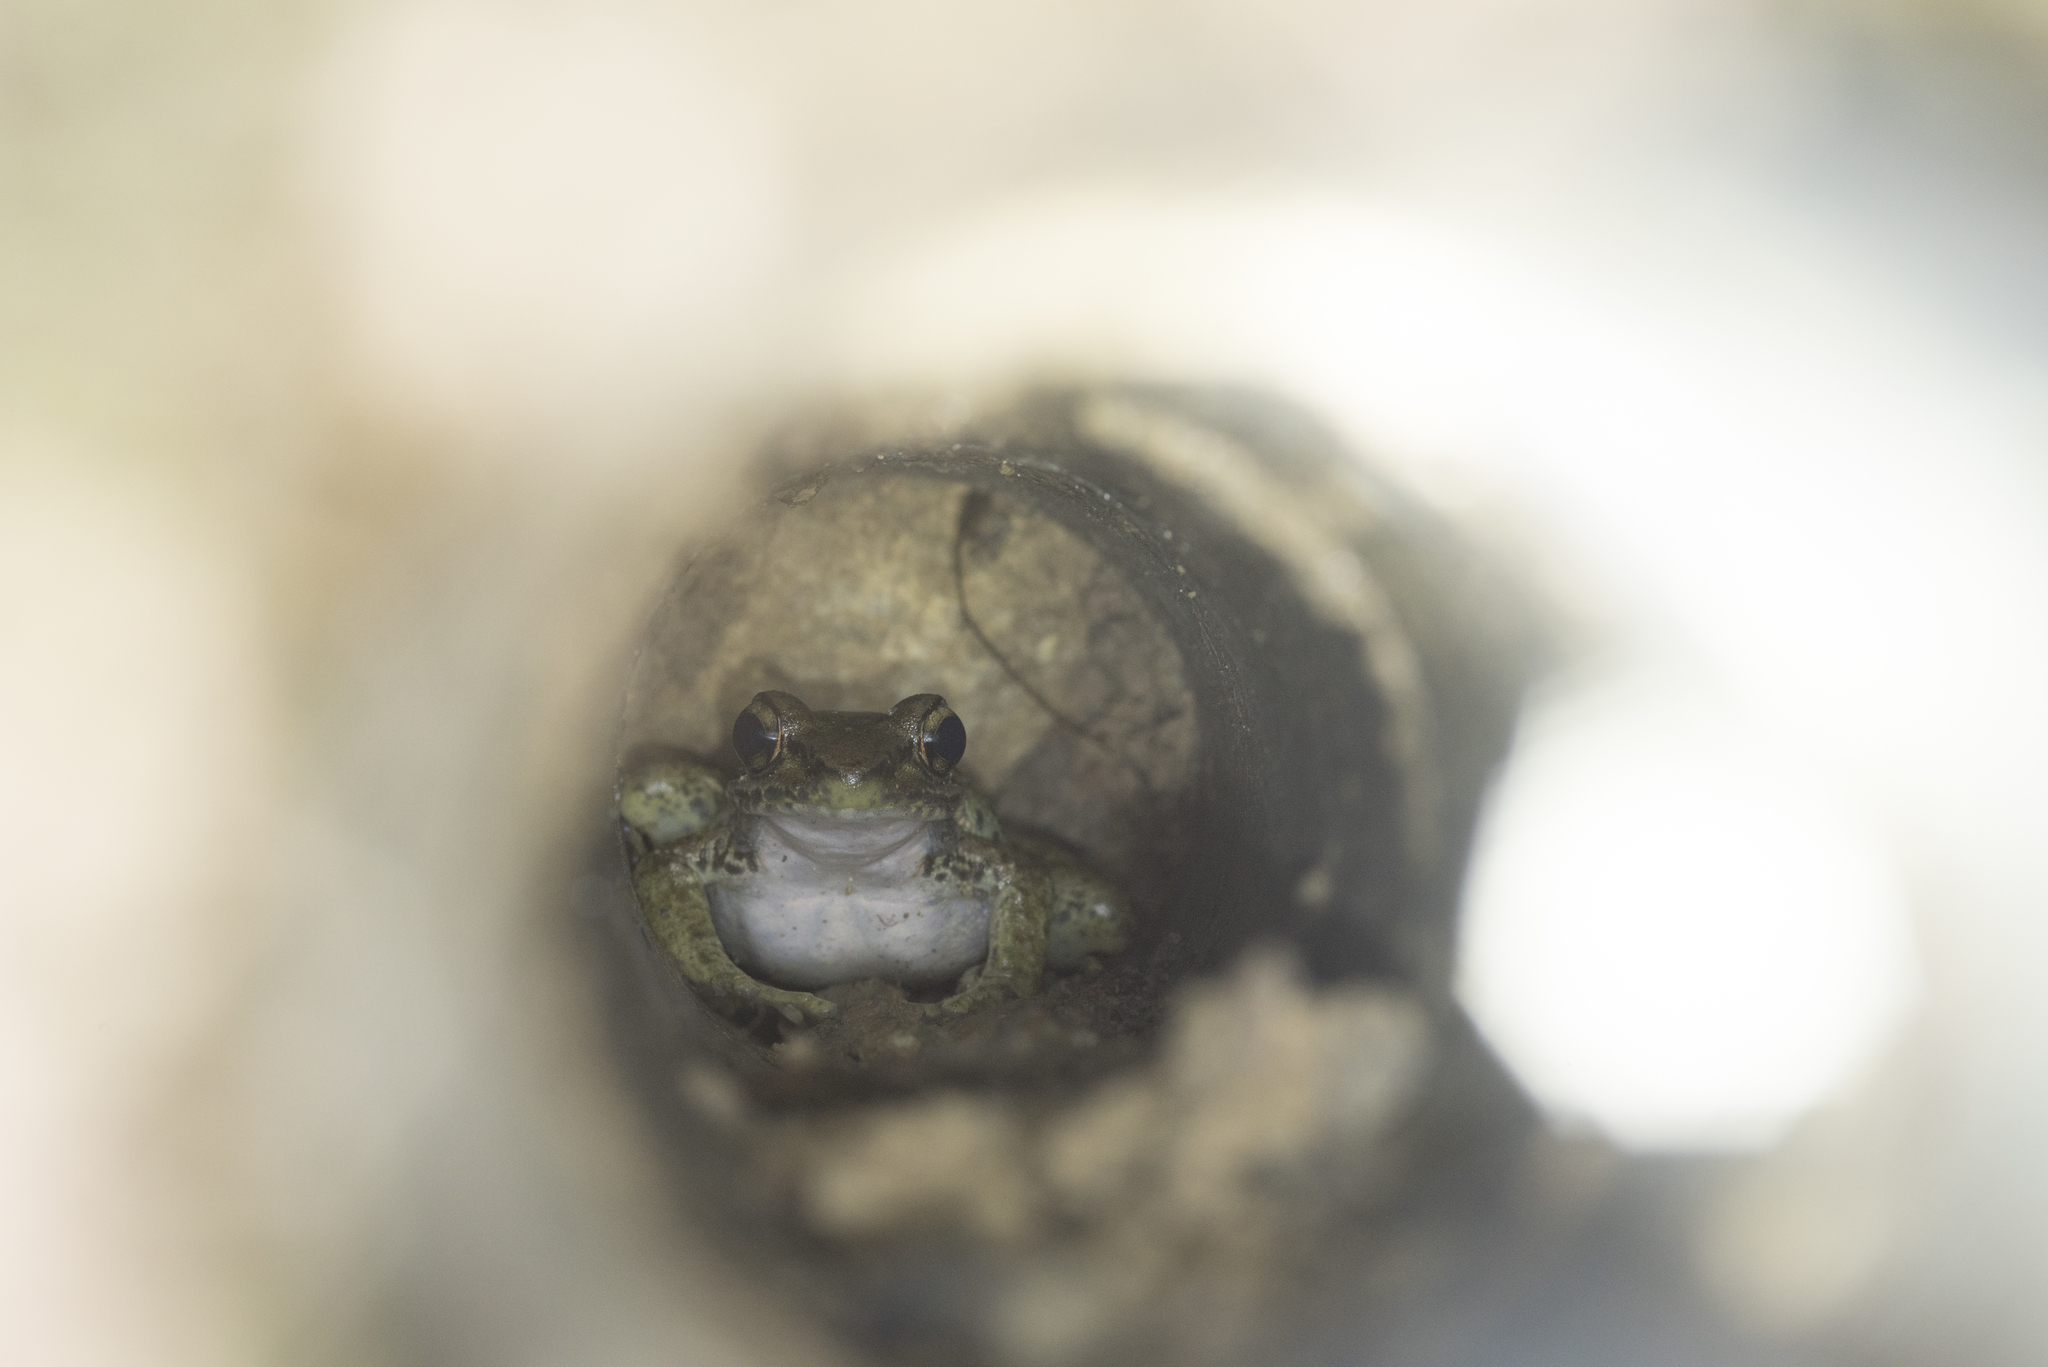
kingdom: Animalia
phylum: Chordata
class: Amphibia
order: Anura
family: Ranidae
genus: Odorrana
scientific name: Odorrana swinhoana
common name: Bangkimtsing frog
